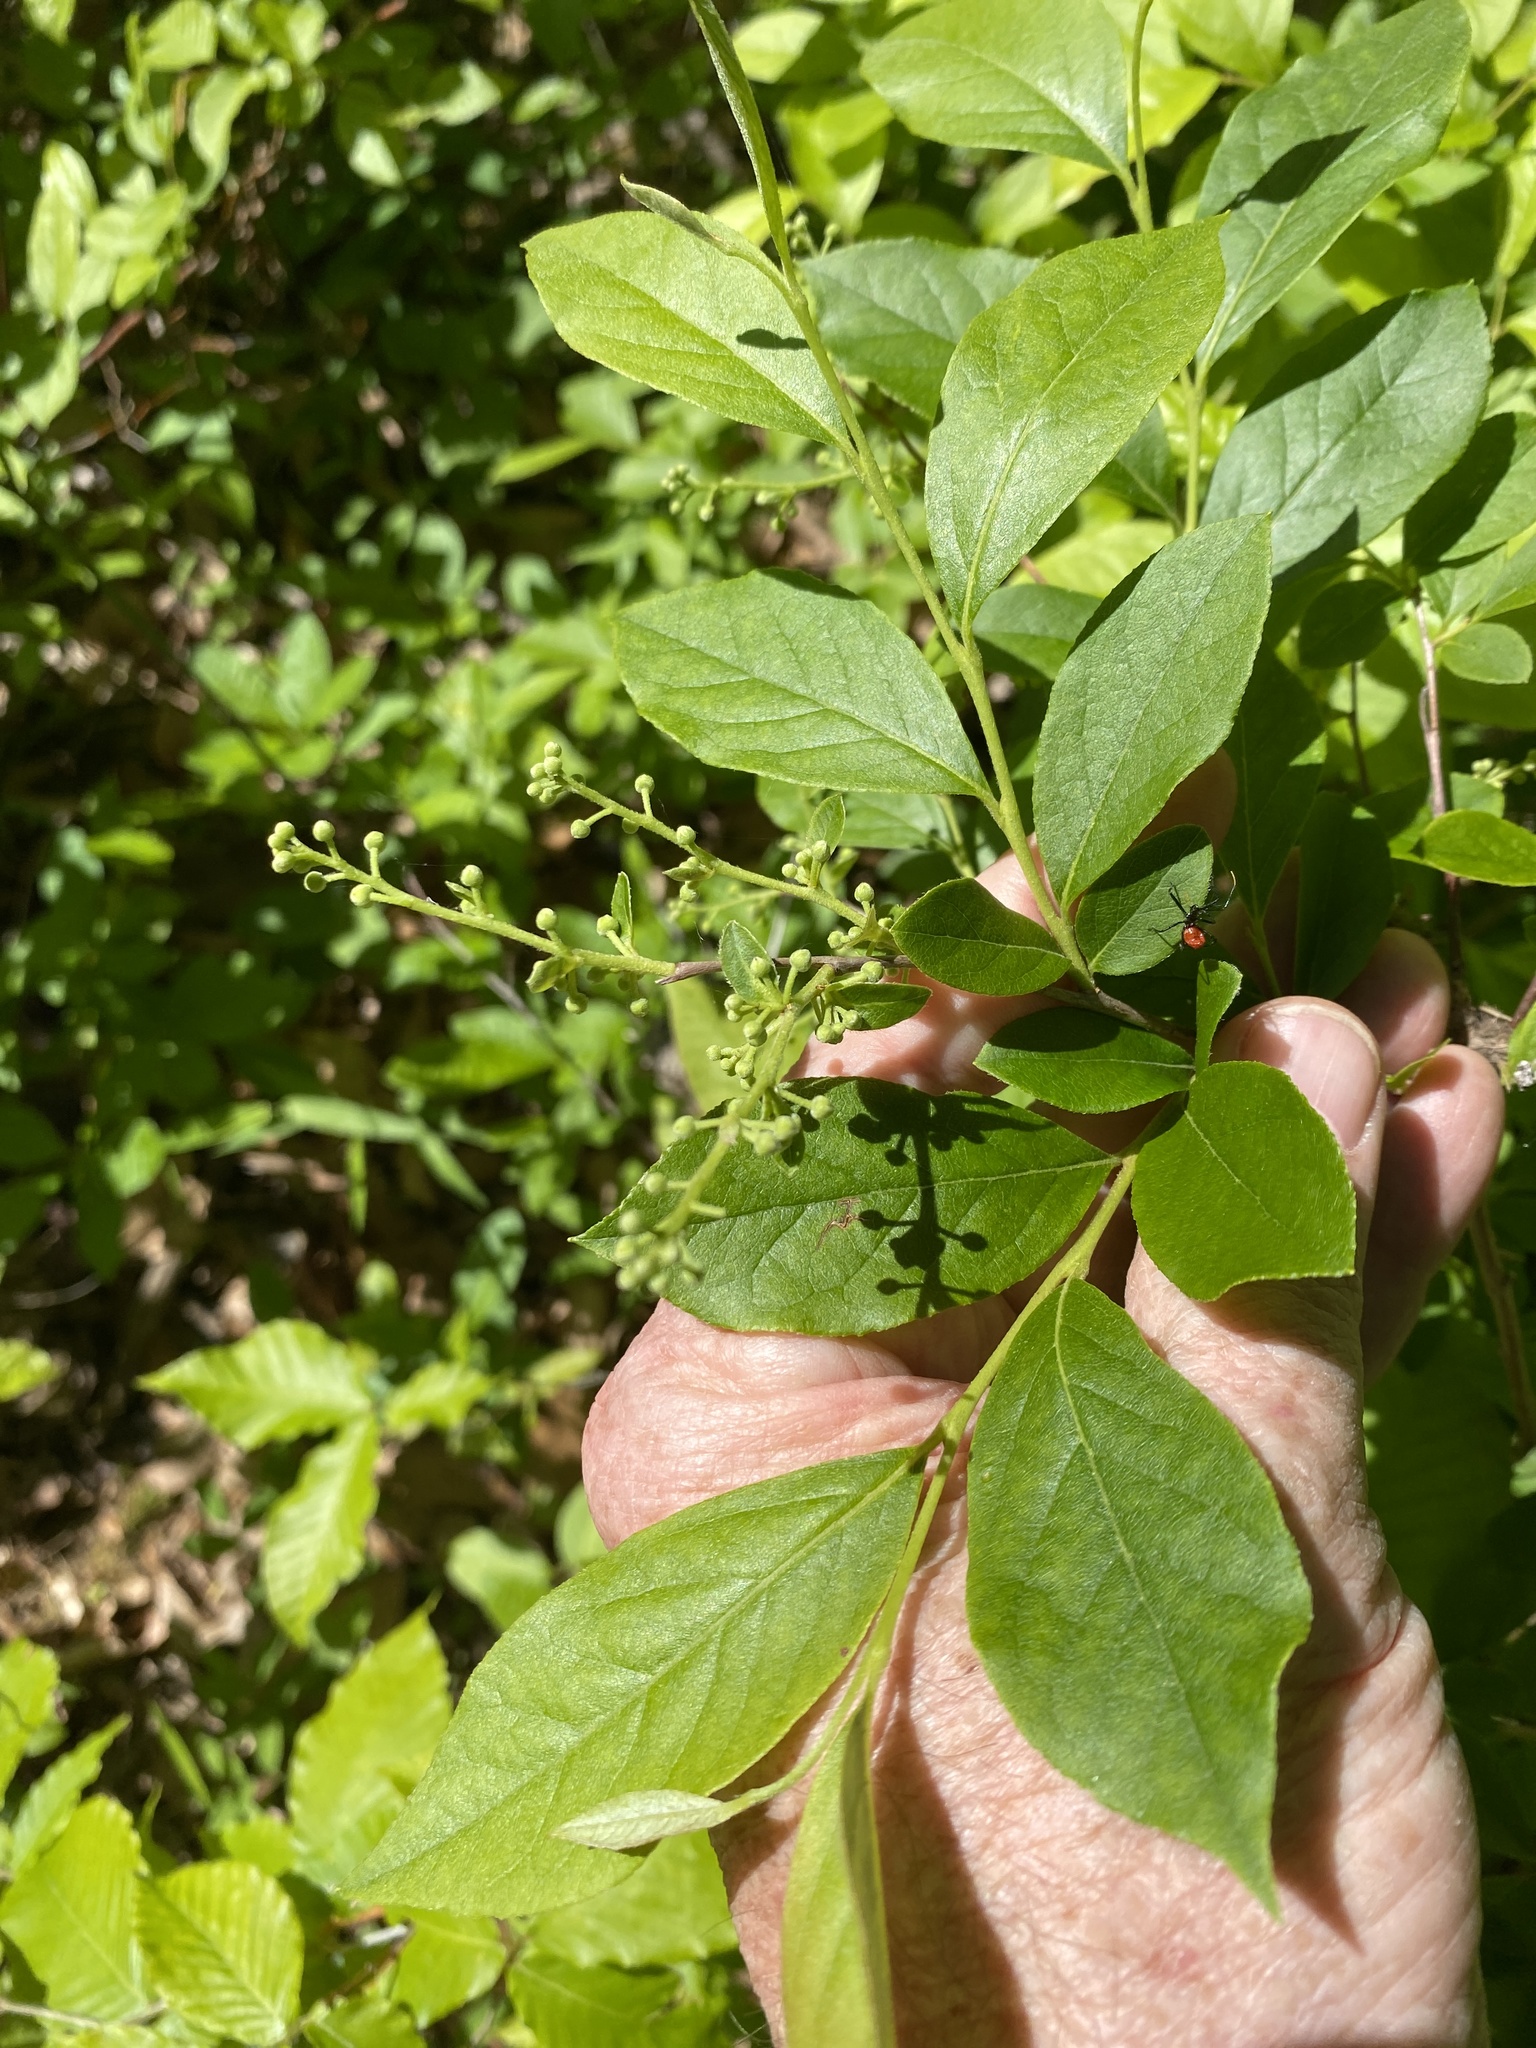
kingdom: Plantae
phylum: Tracheophyta
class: Magnoliopsida
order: Ericales
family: Ericaceae
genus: Lyonia
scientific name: Lyonia ligustrina
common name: Maleberry
